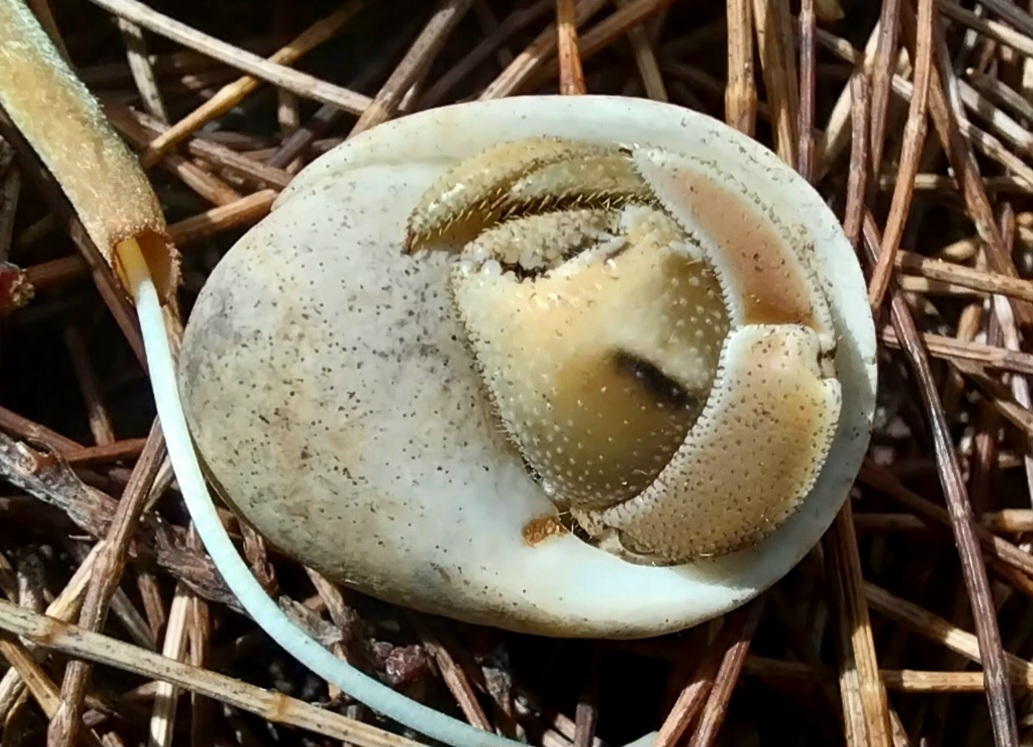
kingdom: Animalia
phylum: Arthropoda
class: Malacostraca
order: Decapoda
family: Coenobitidae
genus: Coenobita
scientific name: Coenobita rugosus
